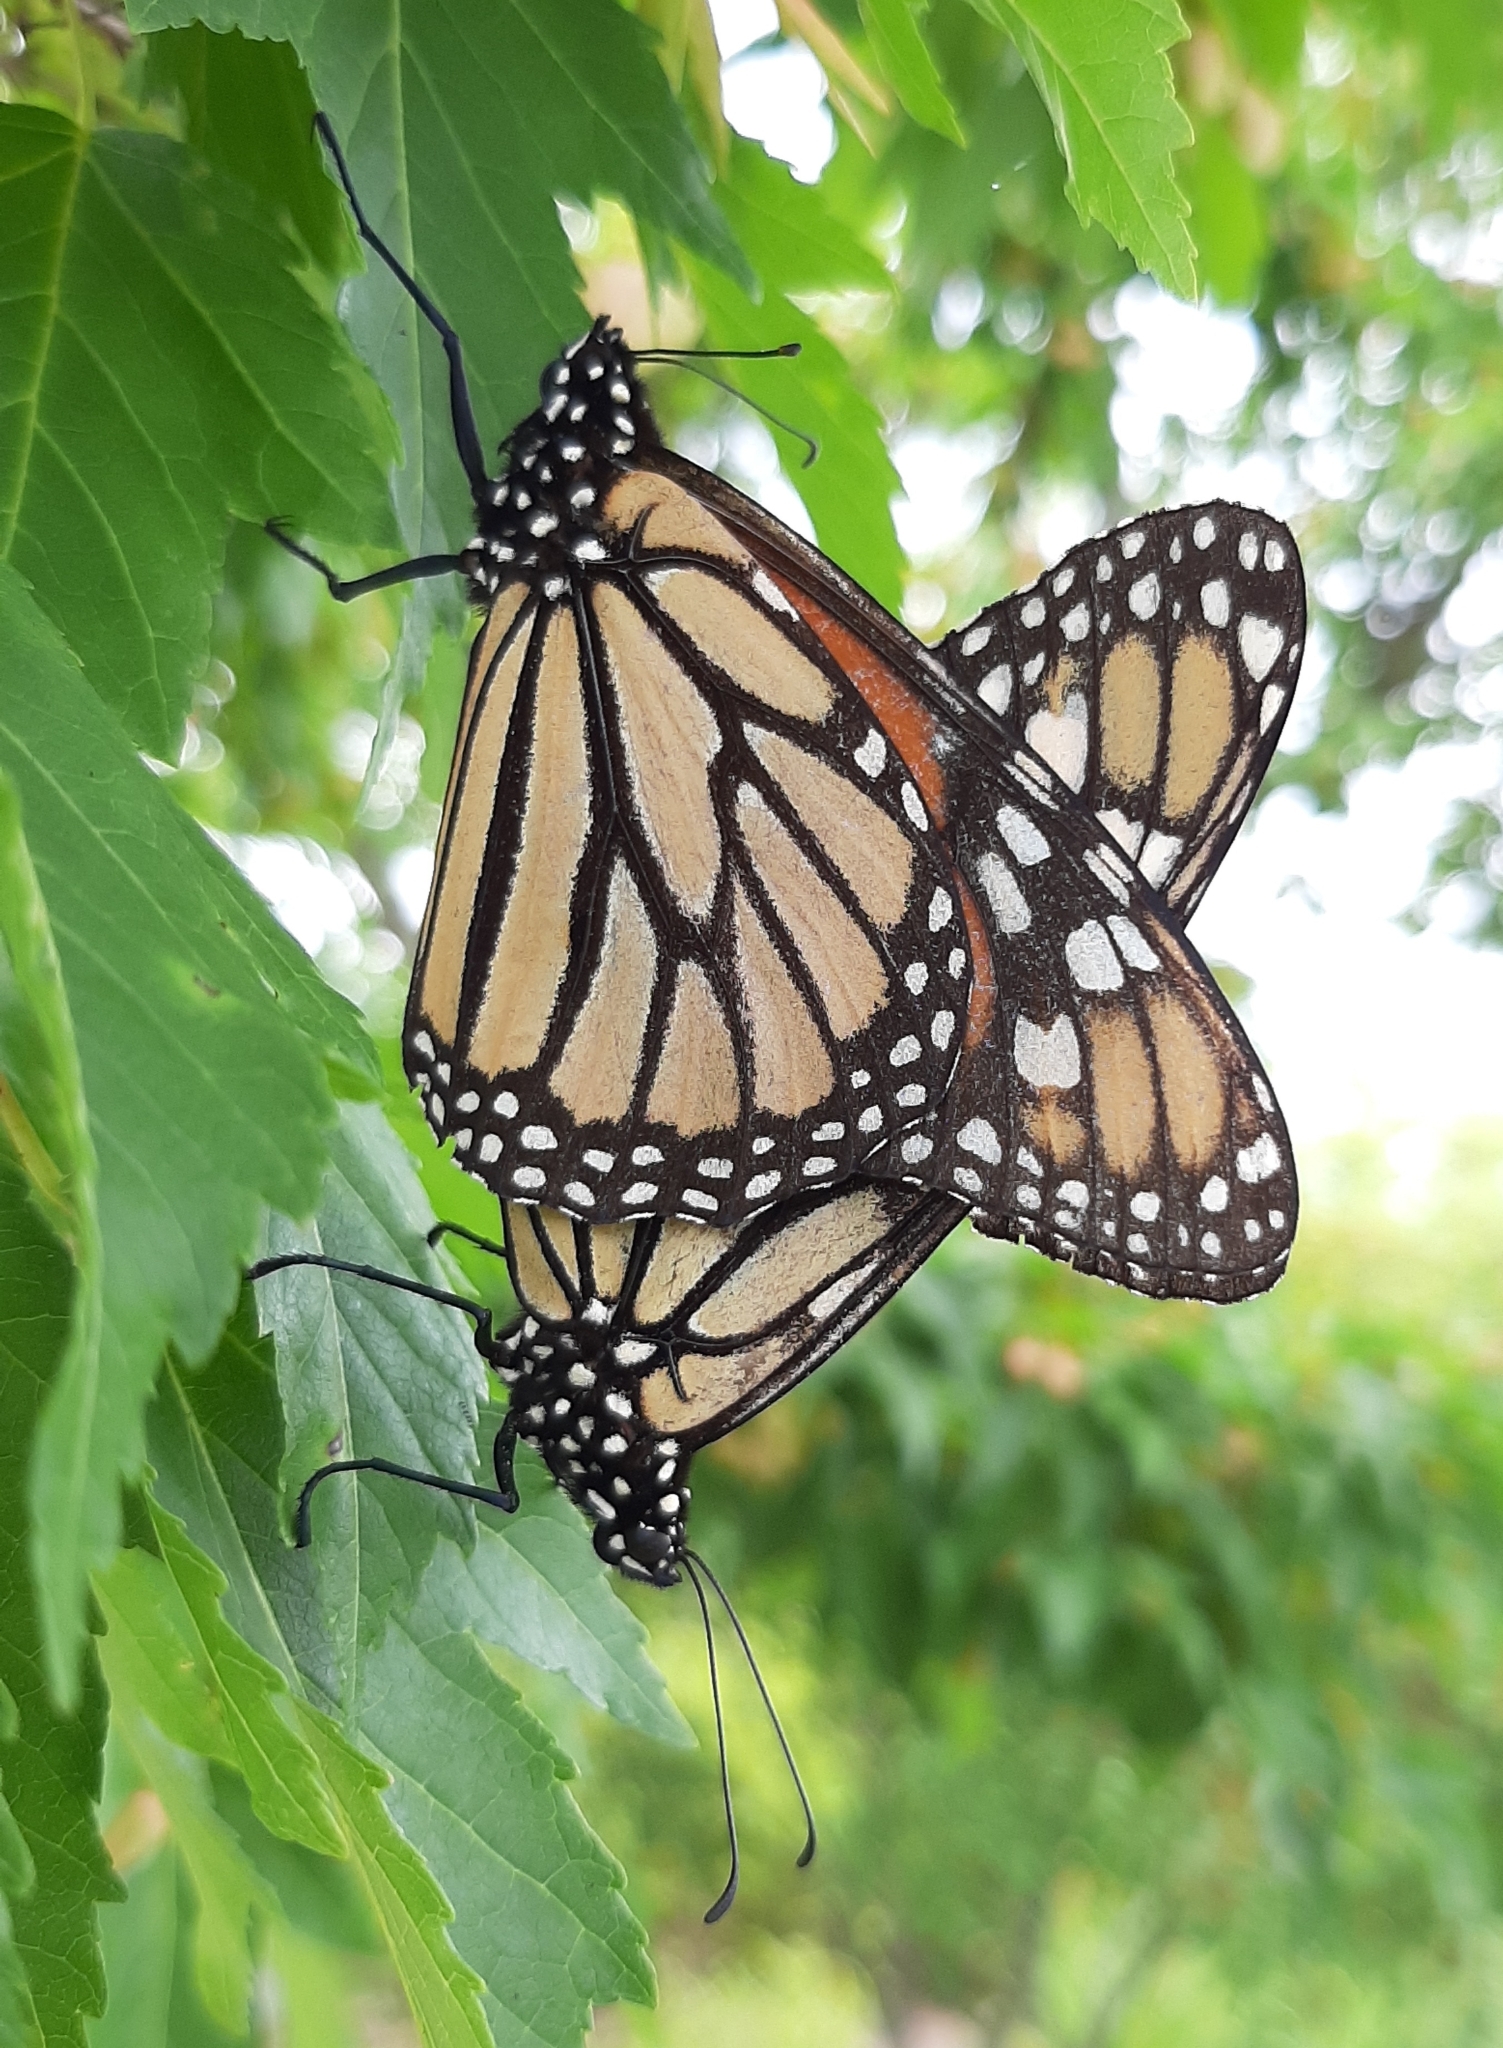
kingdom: Animalia
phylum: Arthropoda
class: Insecta
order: Lepidoptera
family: Nymphalidae
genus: Danaus
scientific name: Danaus plexippus
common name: Monarch
